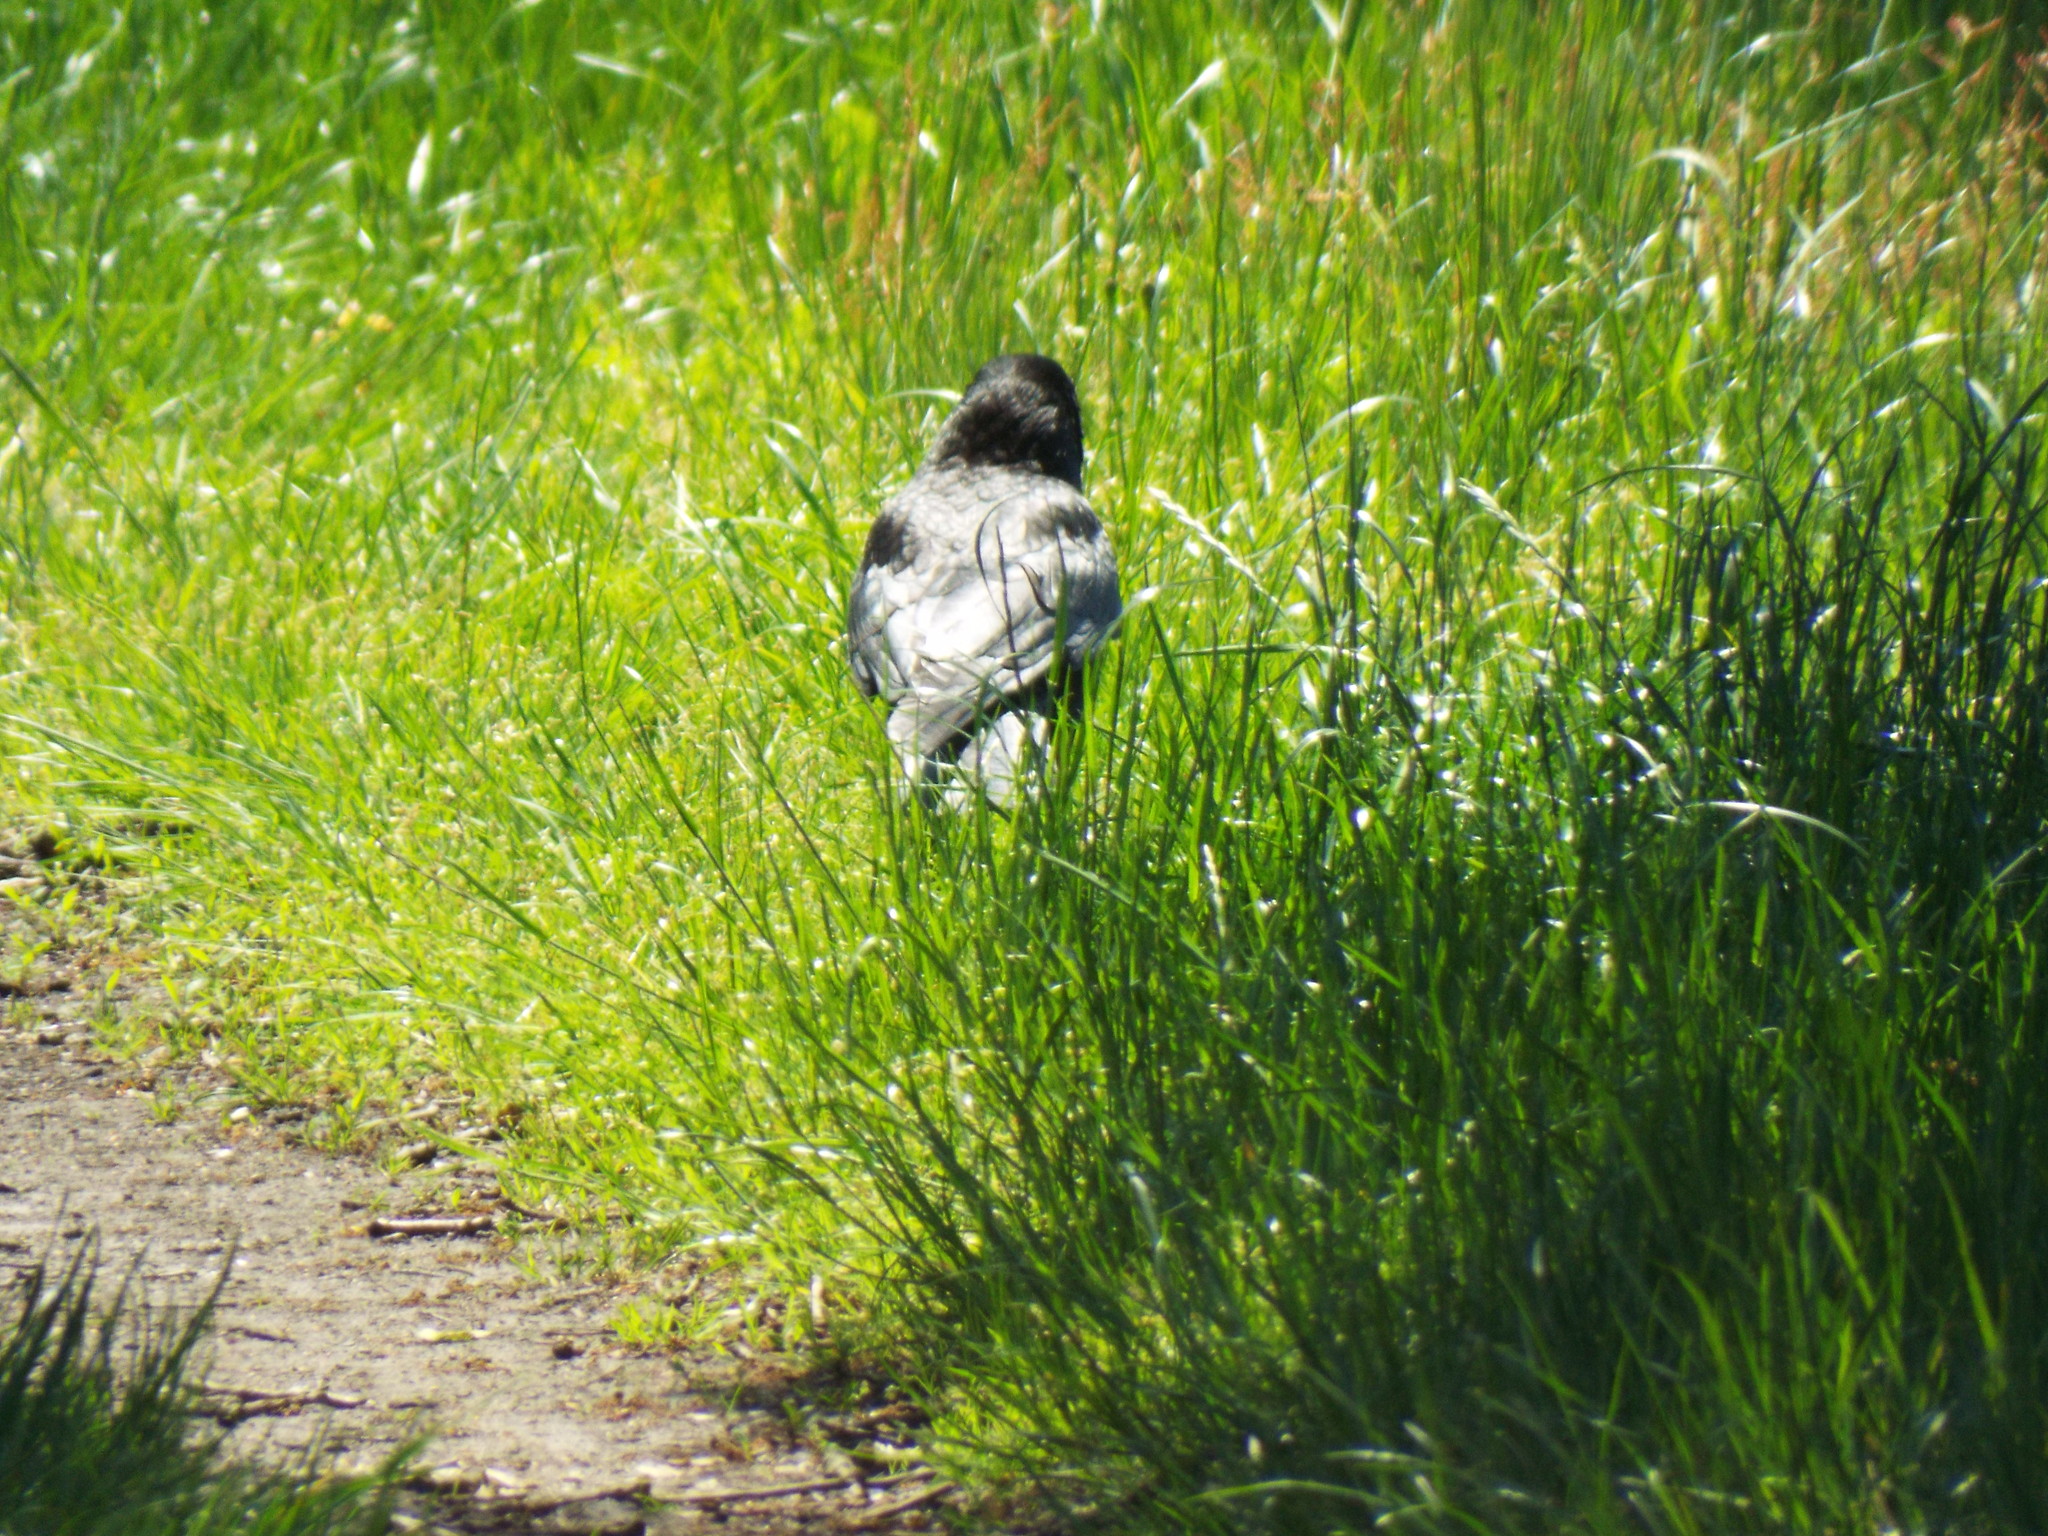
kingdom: Animalia
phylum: Chordata
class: Aves
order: Passeriformes
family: Corvidae
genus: Corvus
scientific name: Corvus corone
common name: Carrion crow
